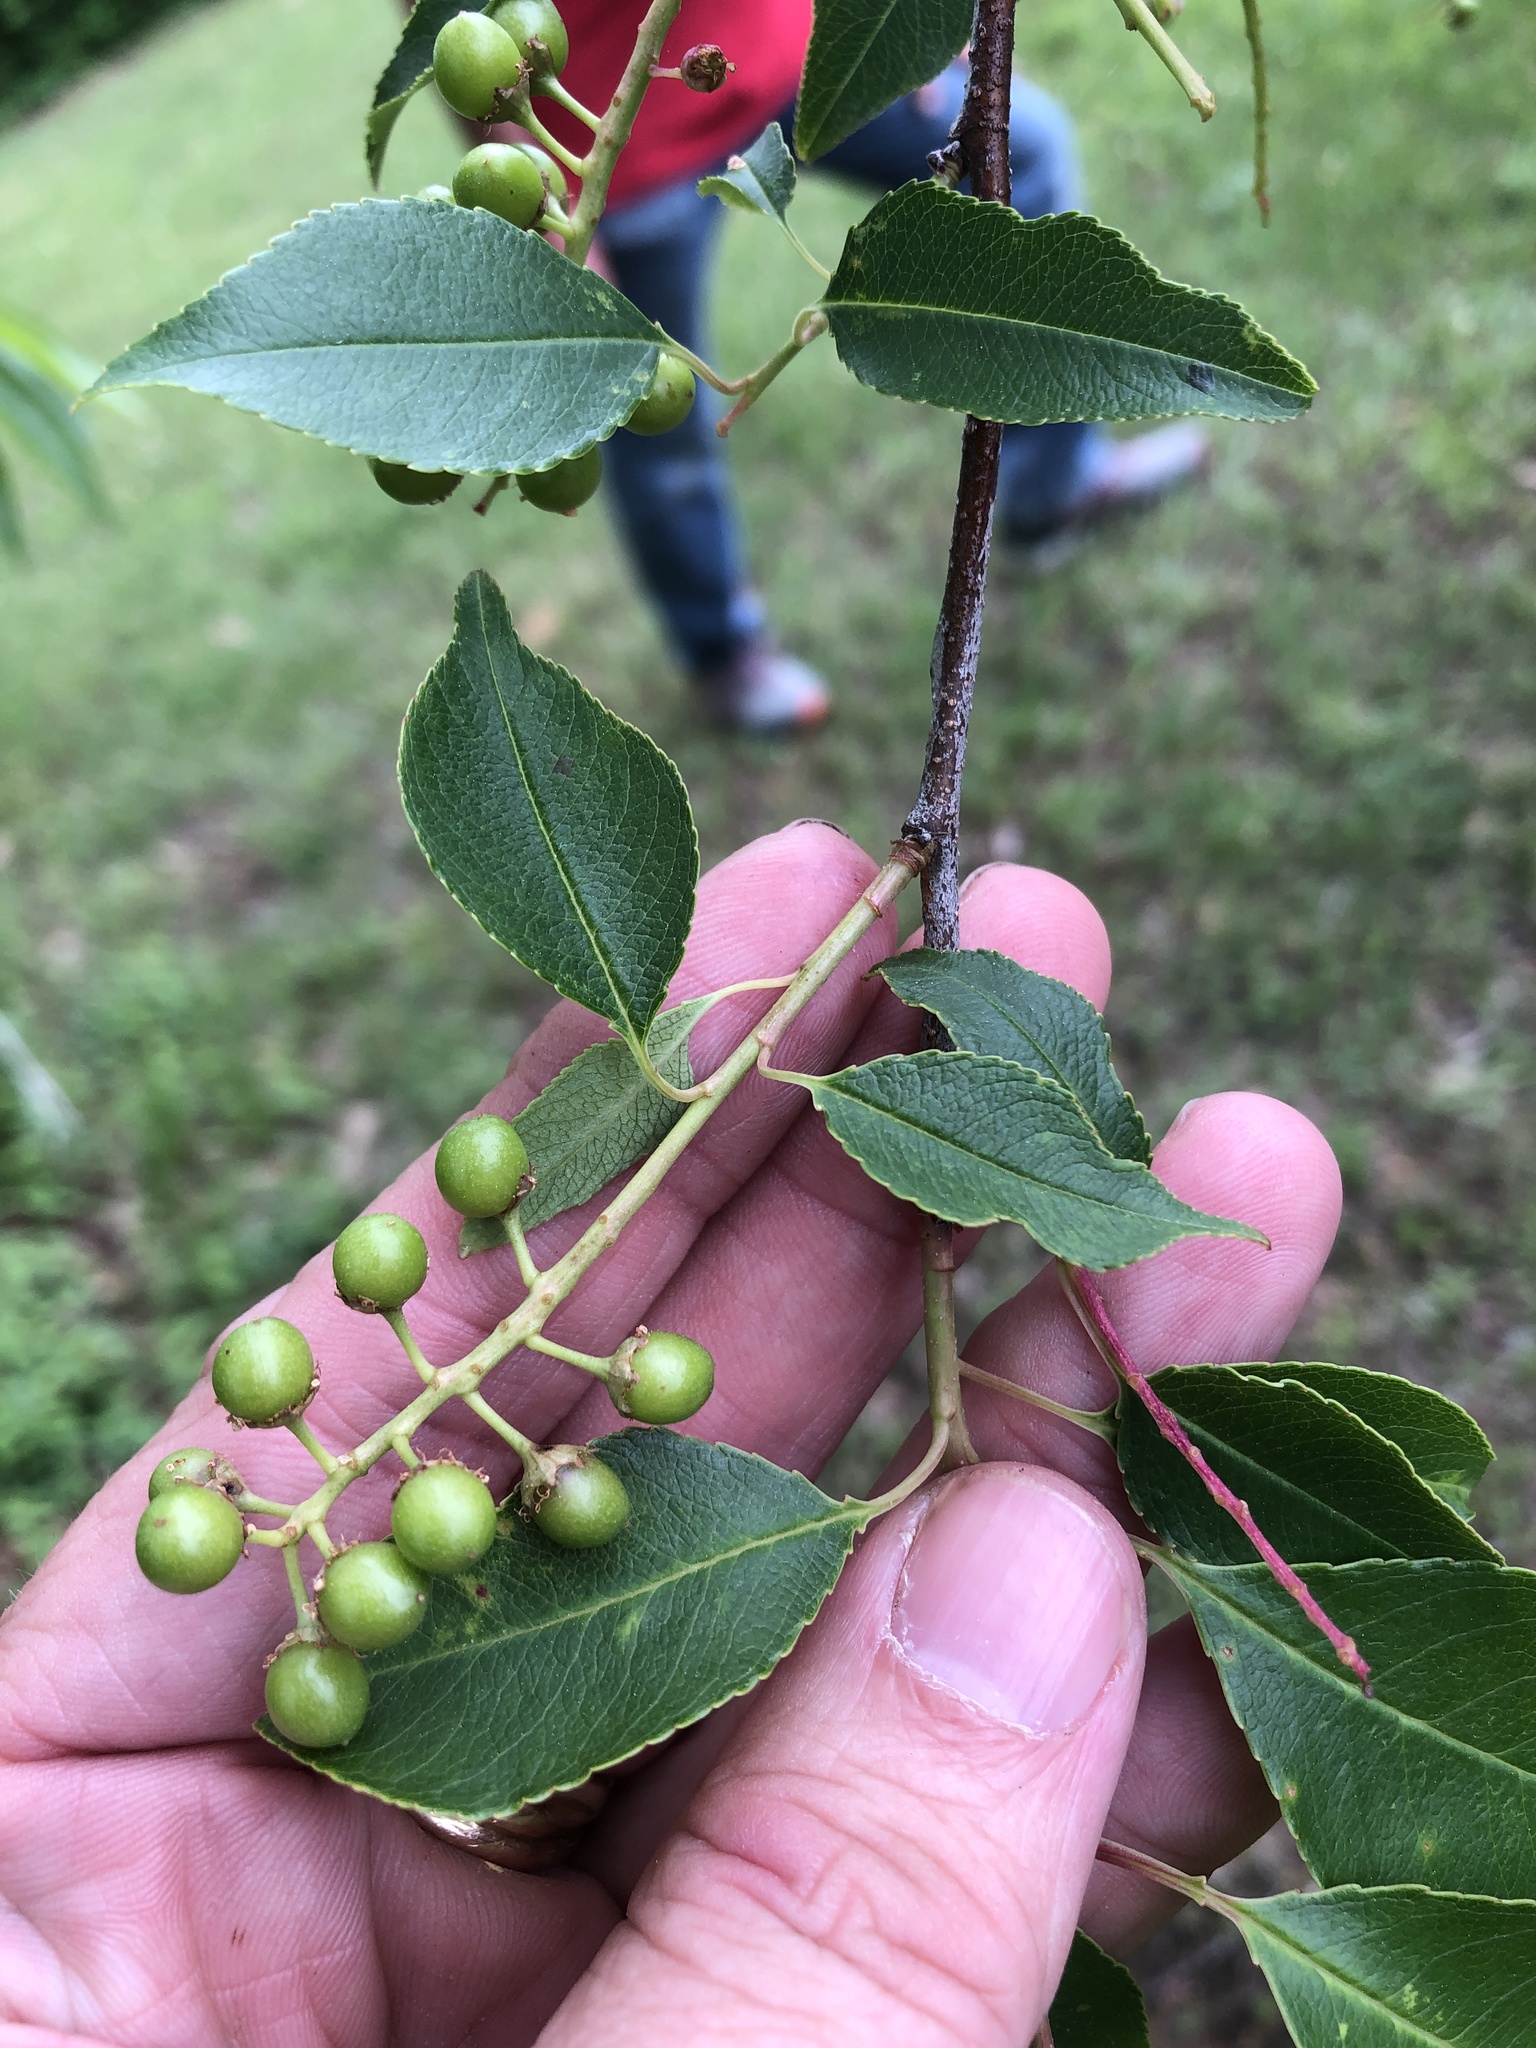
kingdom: Plantae
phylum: Tracheophyta
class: Magnoliopsida
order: Rosales
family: Rosaceae
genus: Prunus
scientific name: Prunus serotina
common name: Black cherry
